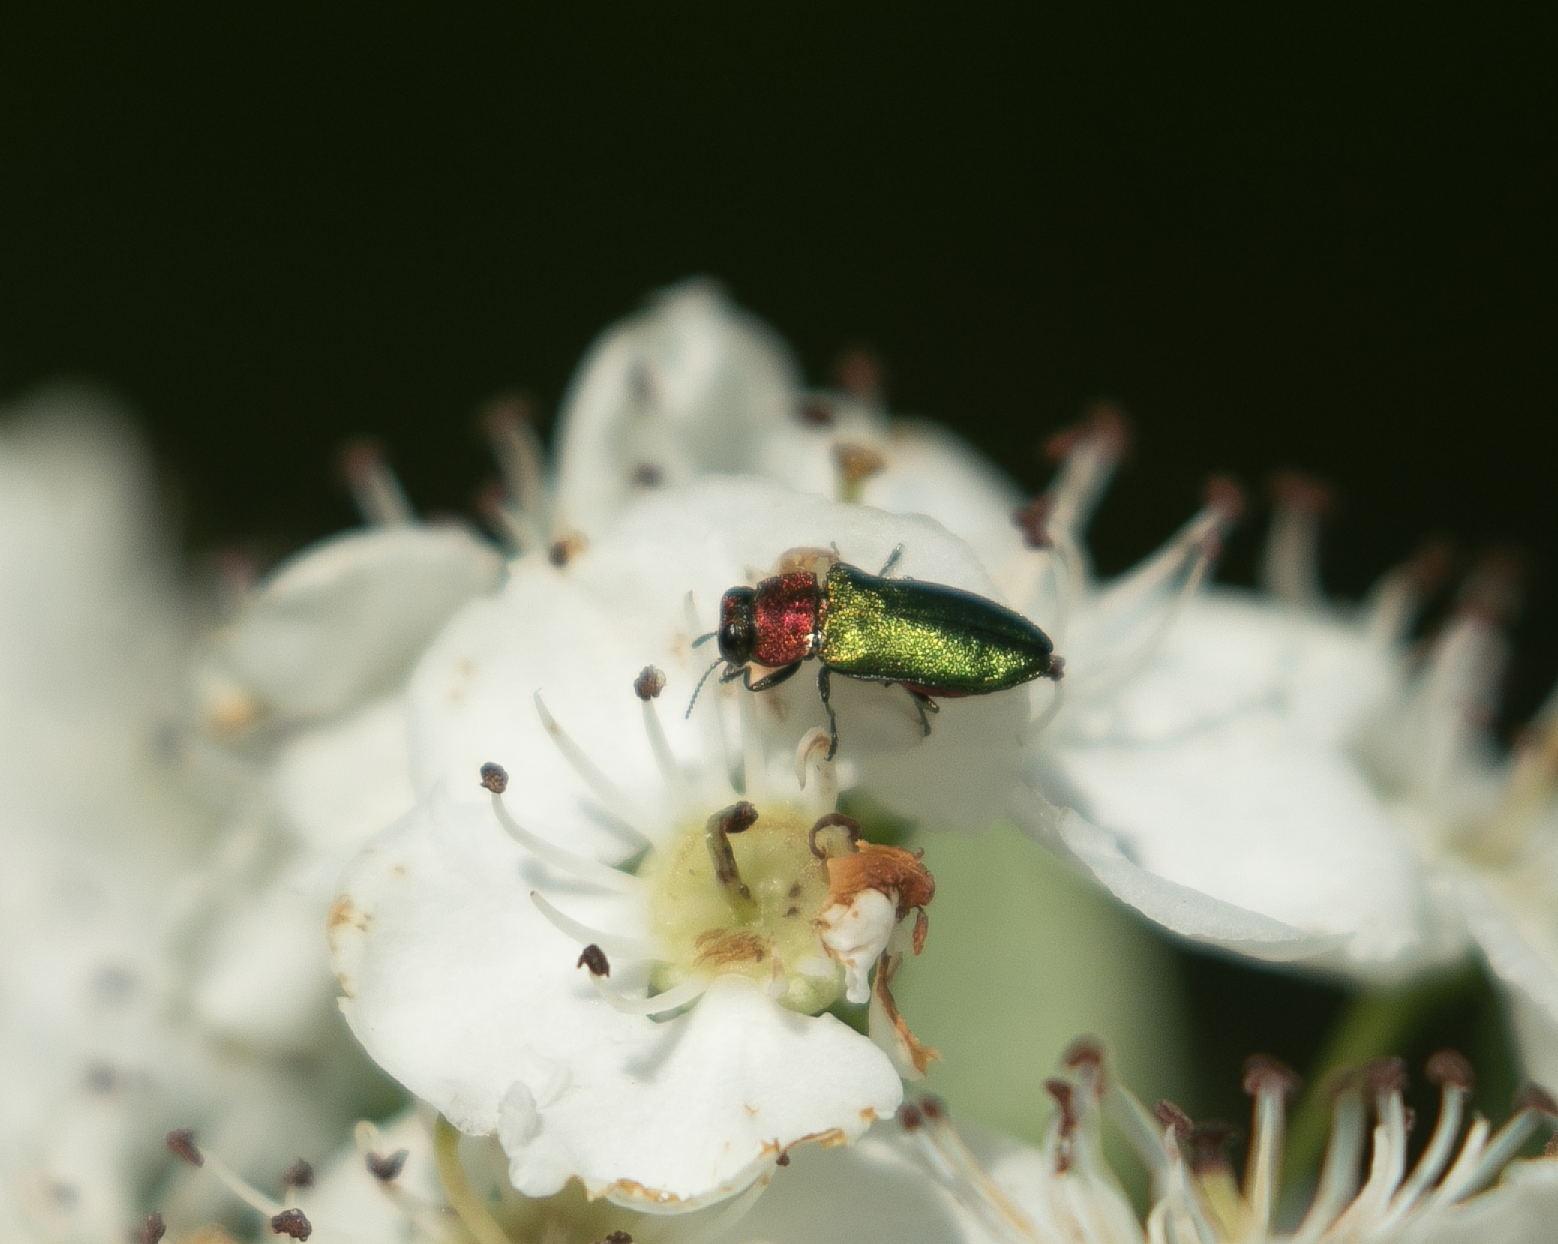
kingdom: Animalia
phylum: Arthropoda
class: Insecta
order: Coleoptera
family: Buprestidae
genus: Anthaxia
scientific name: Anthaxia nitidula
